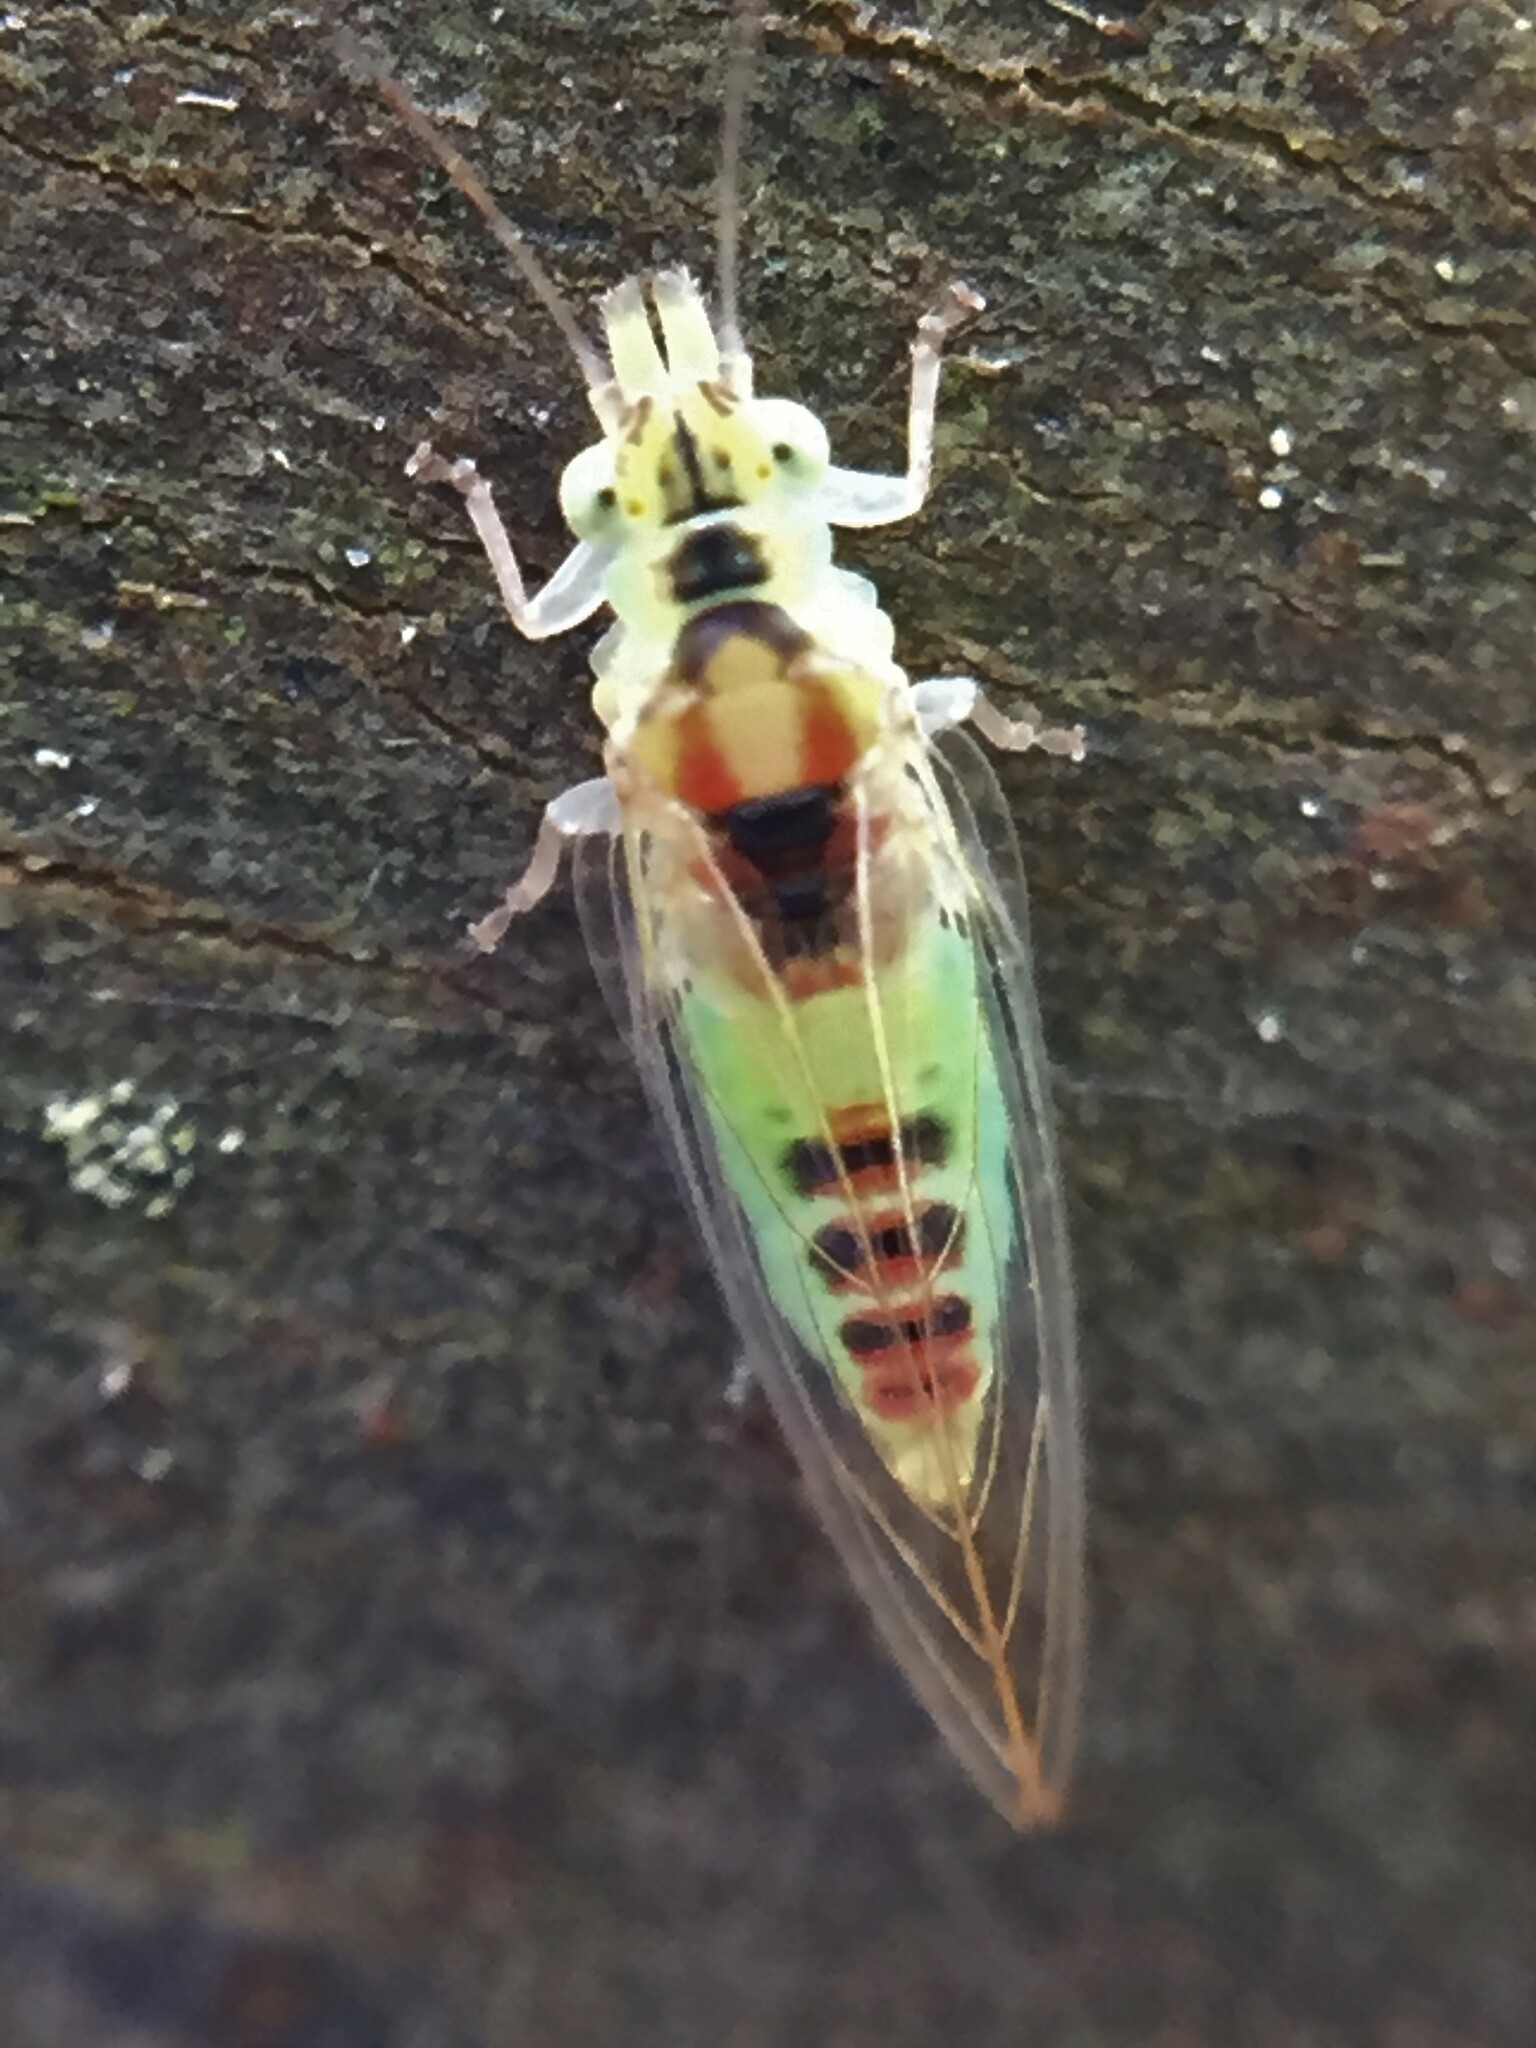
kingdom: Animalia
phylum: Arthropoda
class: Insecta
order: Hemiptera
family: Aphalaridae
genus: Glycaspis
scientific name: Glycaspis granulata
